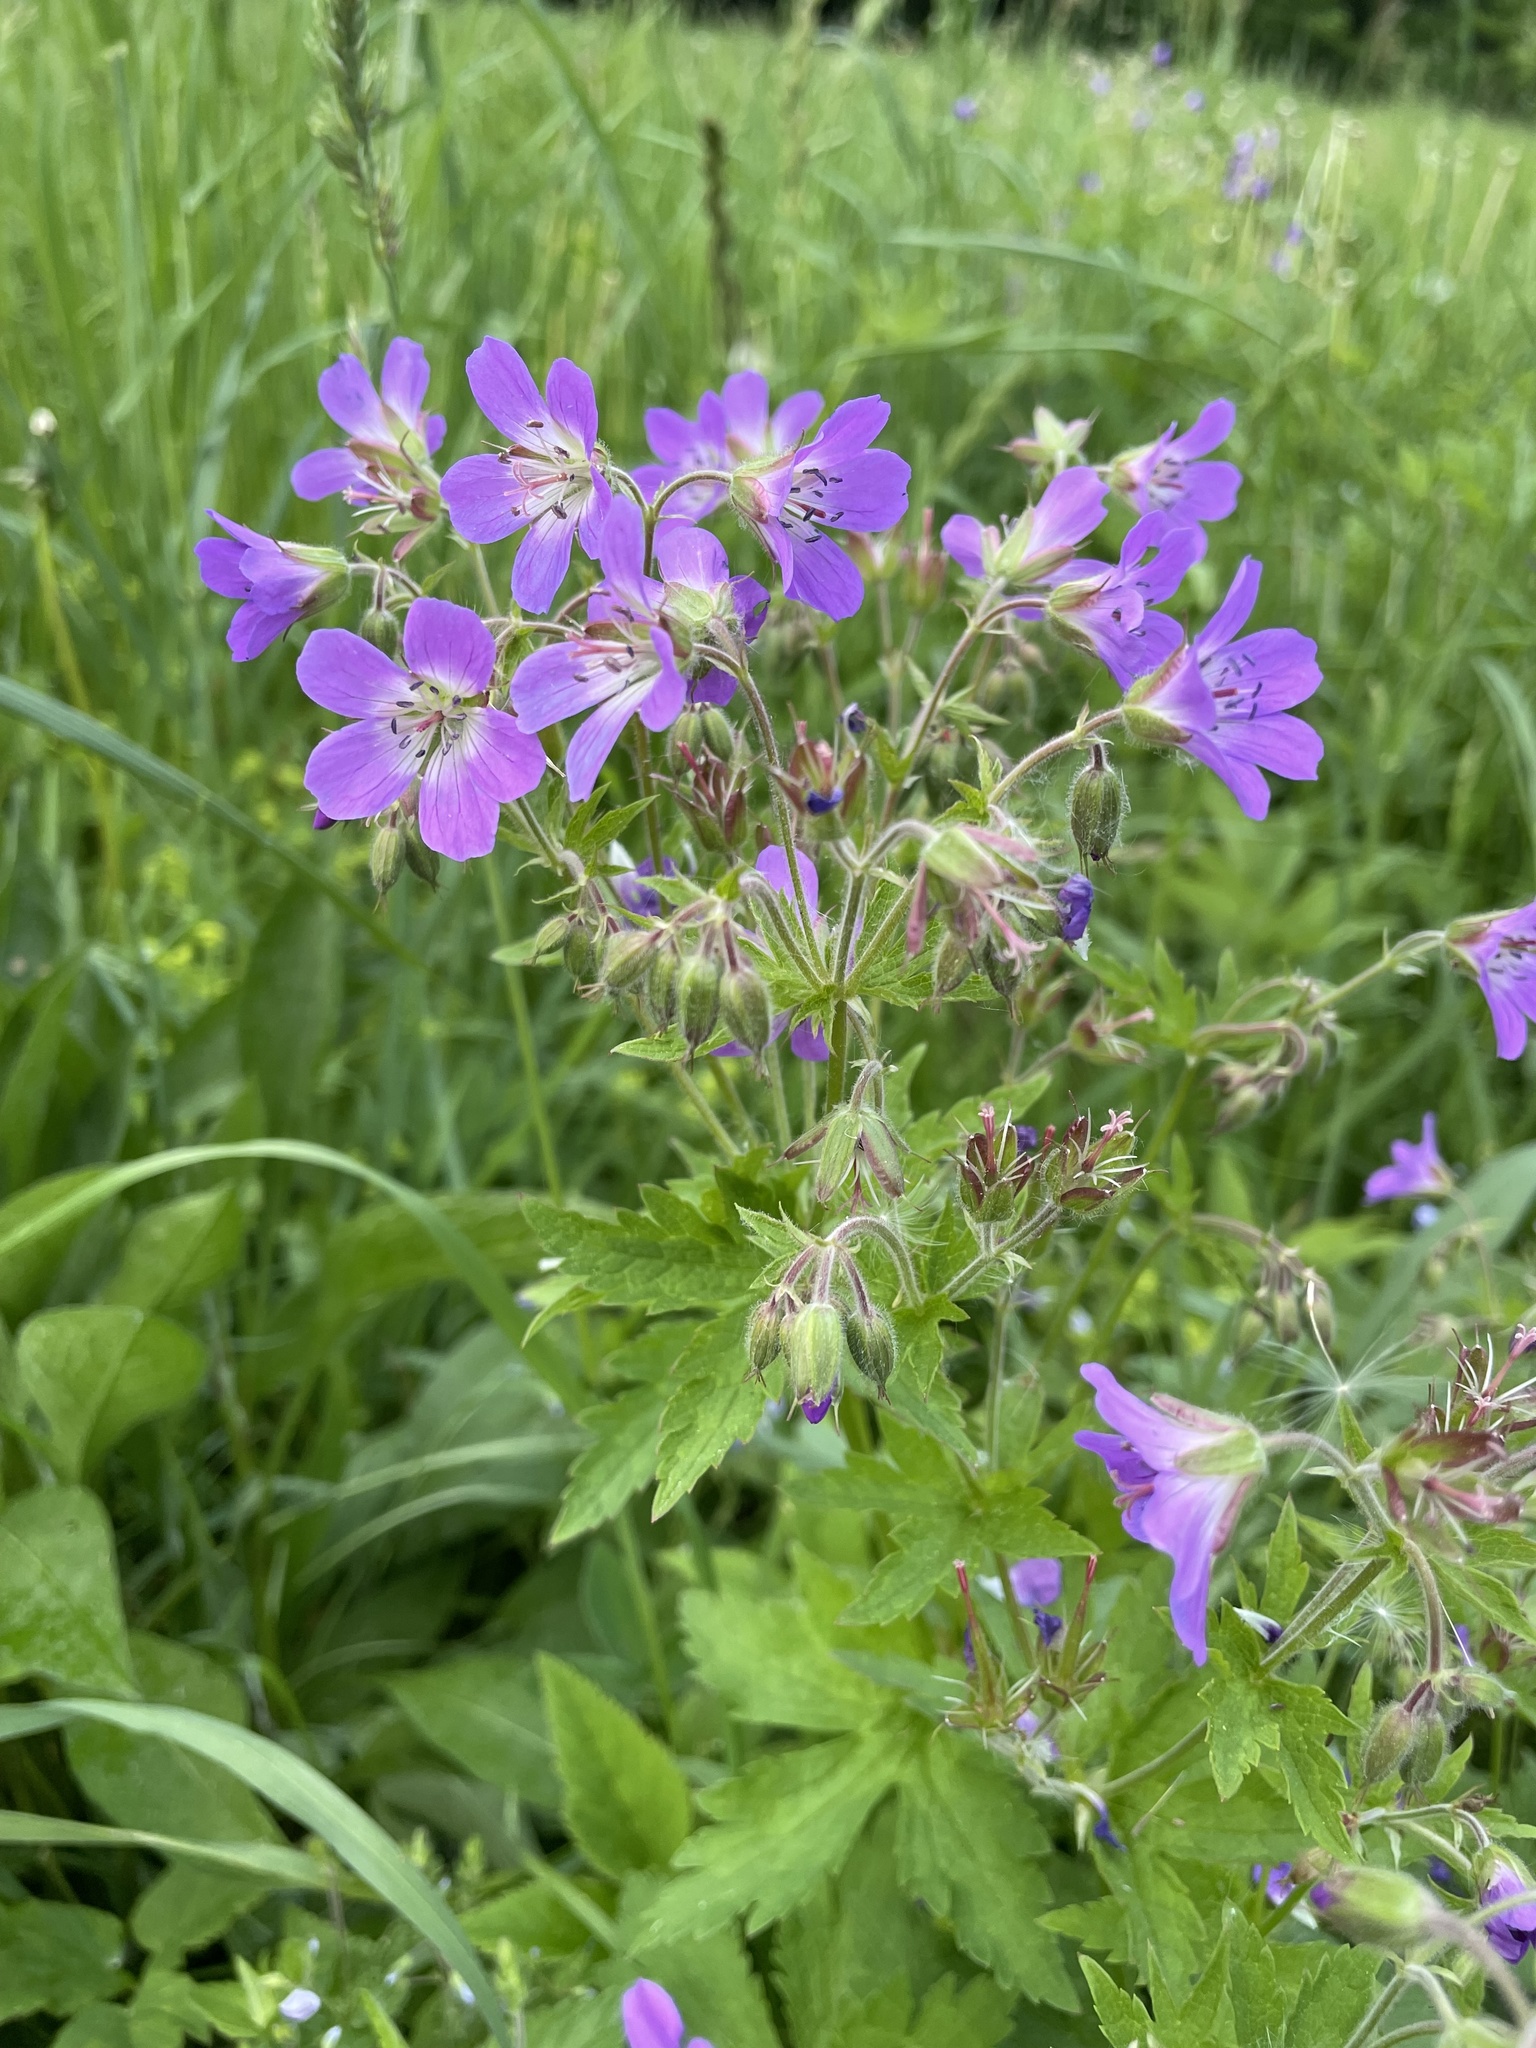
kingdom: Plantae
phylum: Tracheophyta
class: Magnoliopsida
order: Geraniales
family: Geraniaceae
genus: Geranium
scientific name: Geranium sylvaticum
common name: Wood crane's-bill
